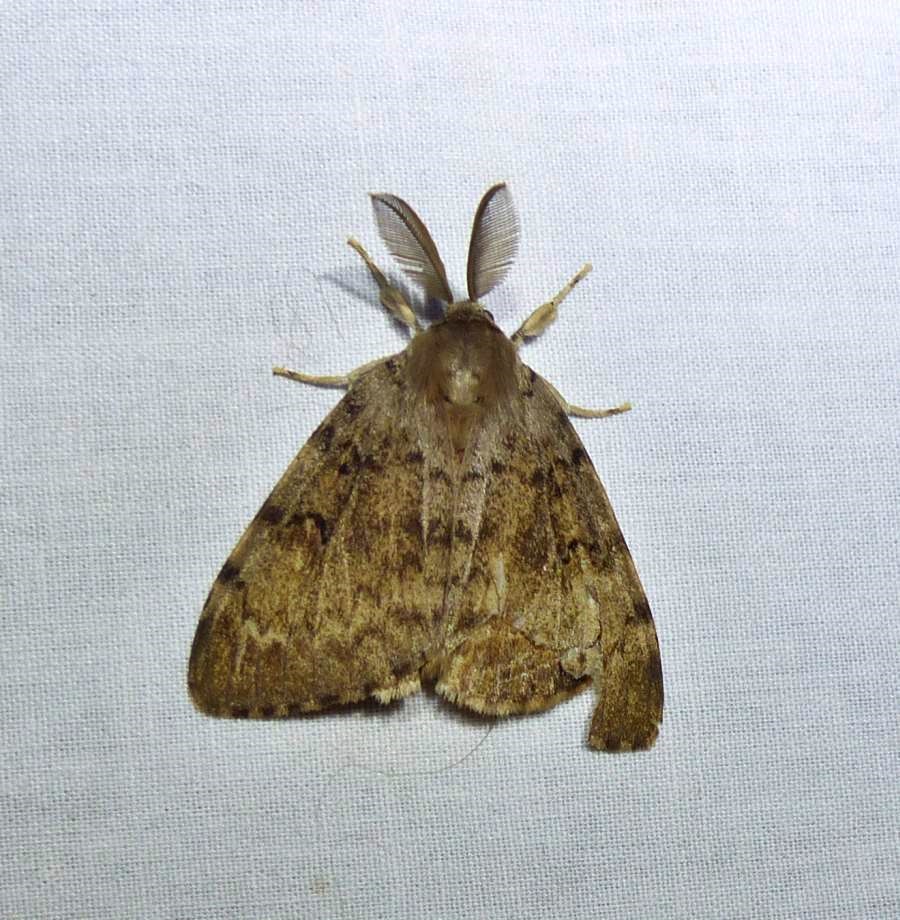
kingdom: Animalia
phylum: Arthropoda
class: Insecta
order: Lepidoptera
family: Erebidae
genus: Lymantria
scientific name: Lymantria dispar
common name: Gypsy moth
